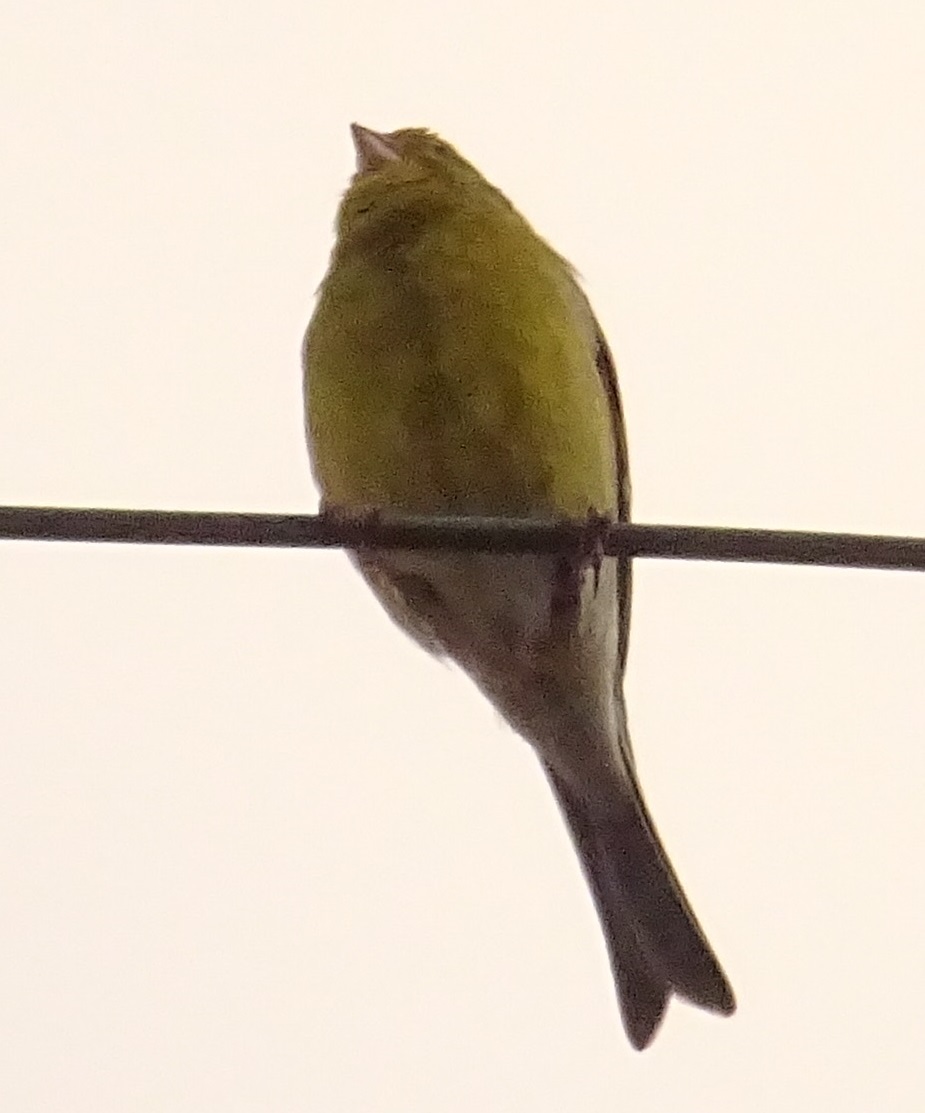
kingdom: Animalia
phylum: Chordata
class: Aves
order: Passeriformes
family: Fringillidae
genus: Serinus
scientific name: Serinus canaria
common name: Atlantic canary
